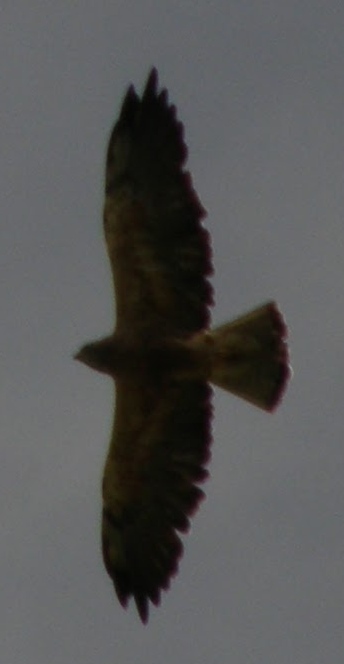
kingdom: Animalia
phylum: Chordata
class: Aves
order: Accipitriformes
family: Accipitridae
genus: Buteo
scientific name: Buteo swainsoni
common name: Swainson's hawk
